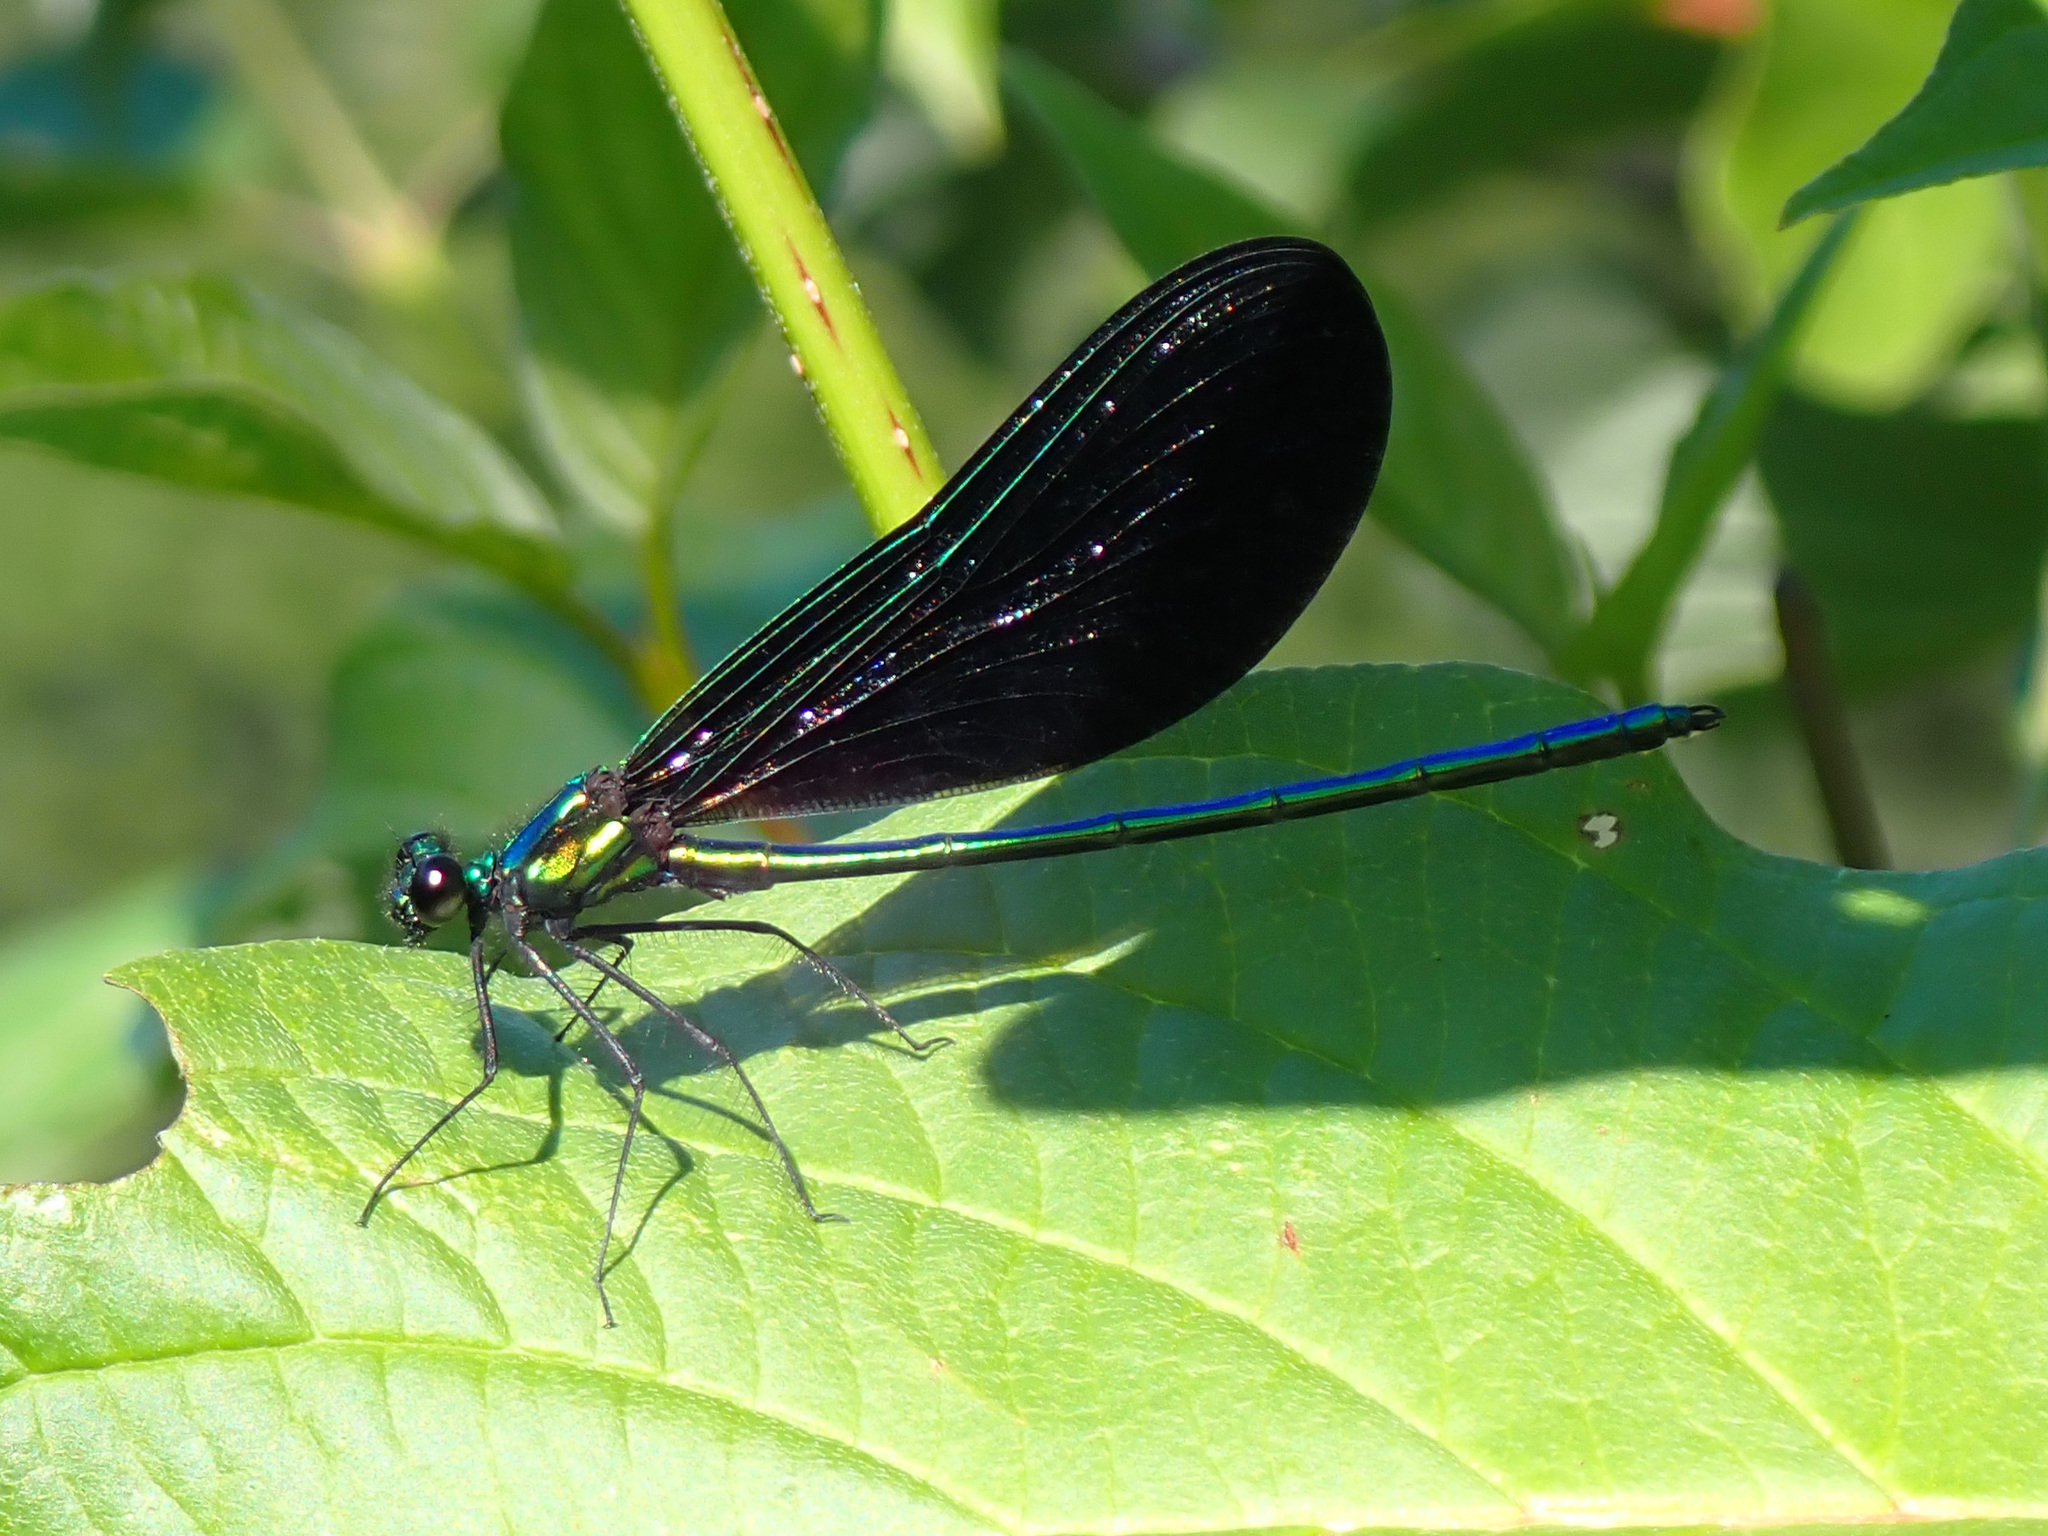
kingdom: Animalia
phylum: Arthropoda
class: Insecta
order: Odonata
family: Calopterygidae
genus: Calopteryx
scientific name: Calopteryx maculata
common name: Ebony jewelwing
